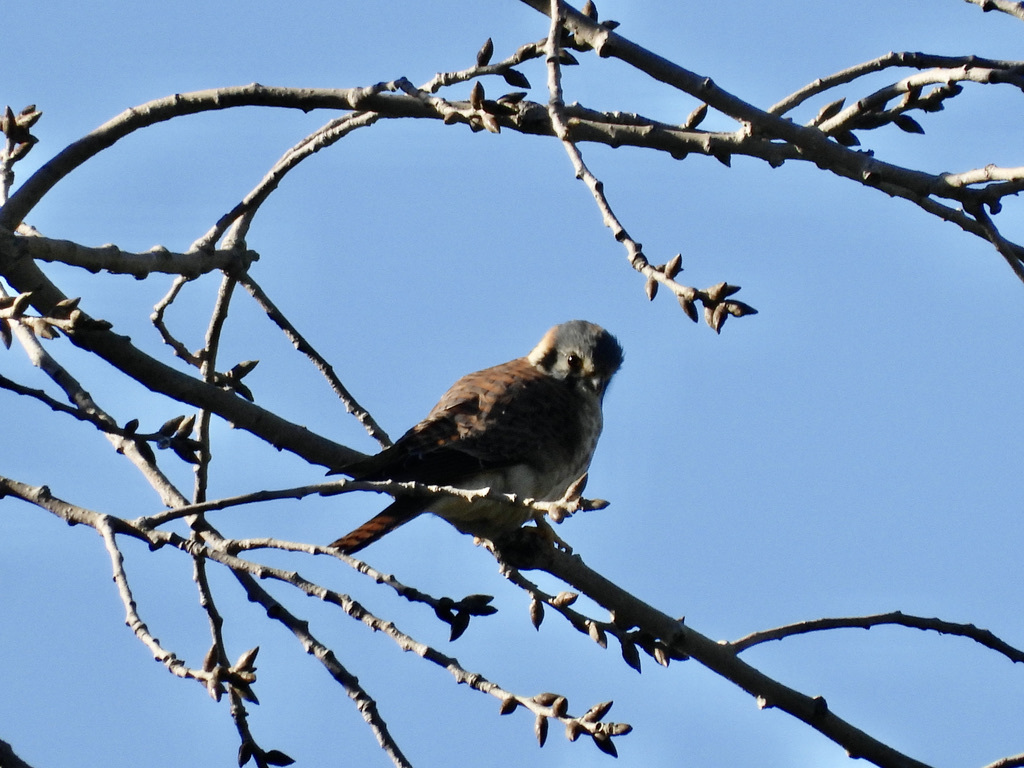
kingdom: Animalia
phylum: Chordata
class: Aves
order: Falconiformes
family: Falconidae
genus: Falco
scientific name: Falco sparverius
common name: American kestrel
